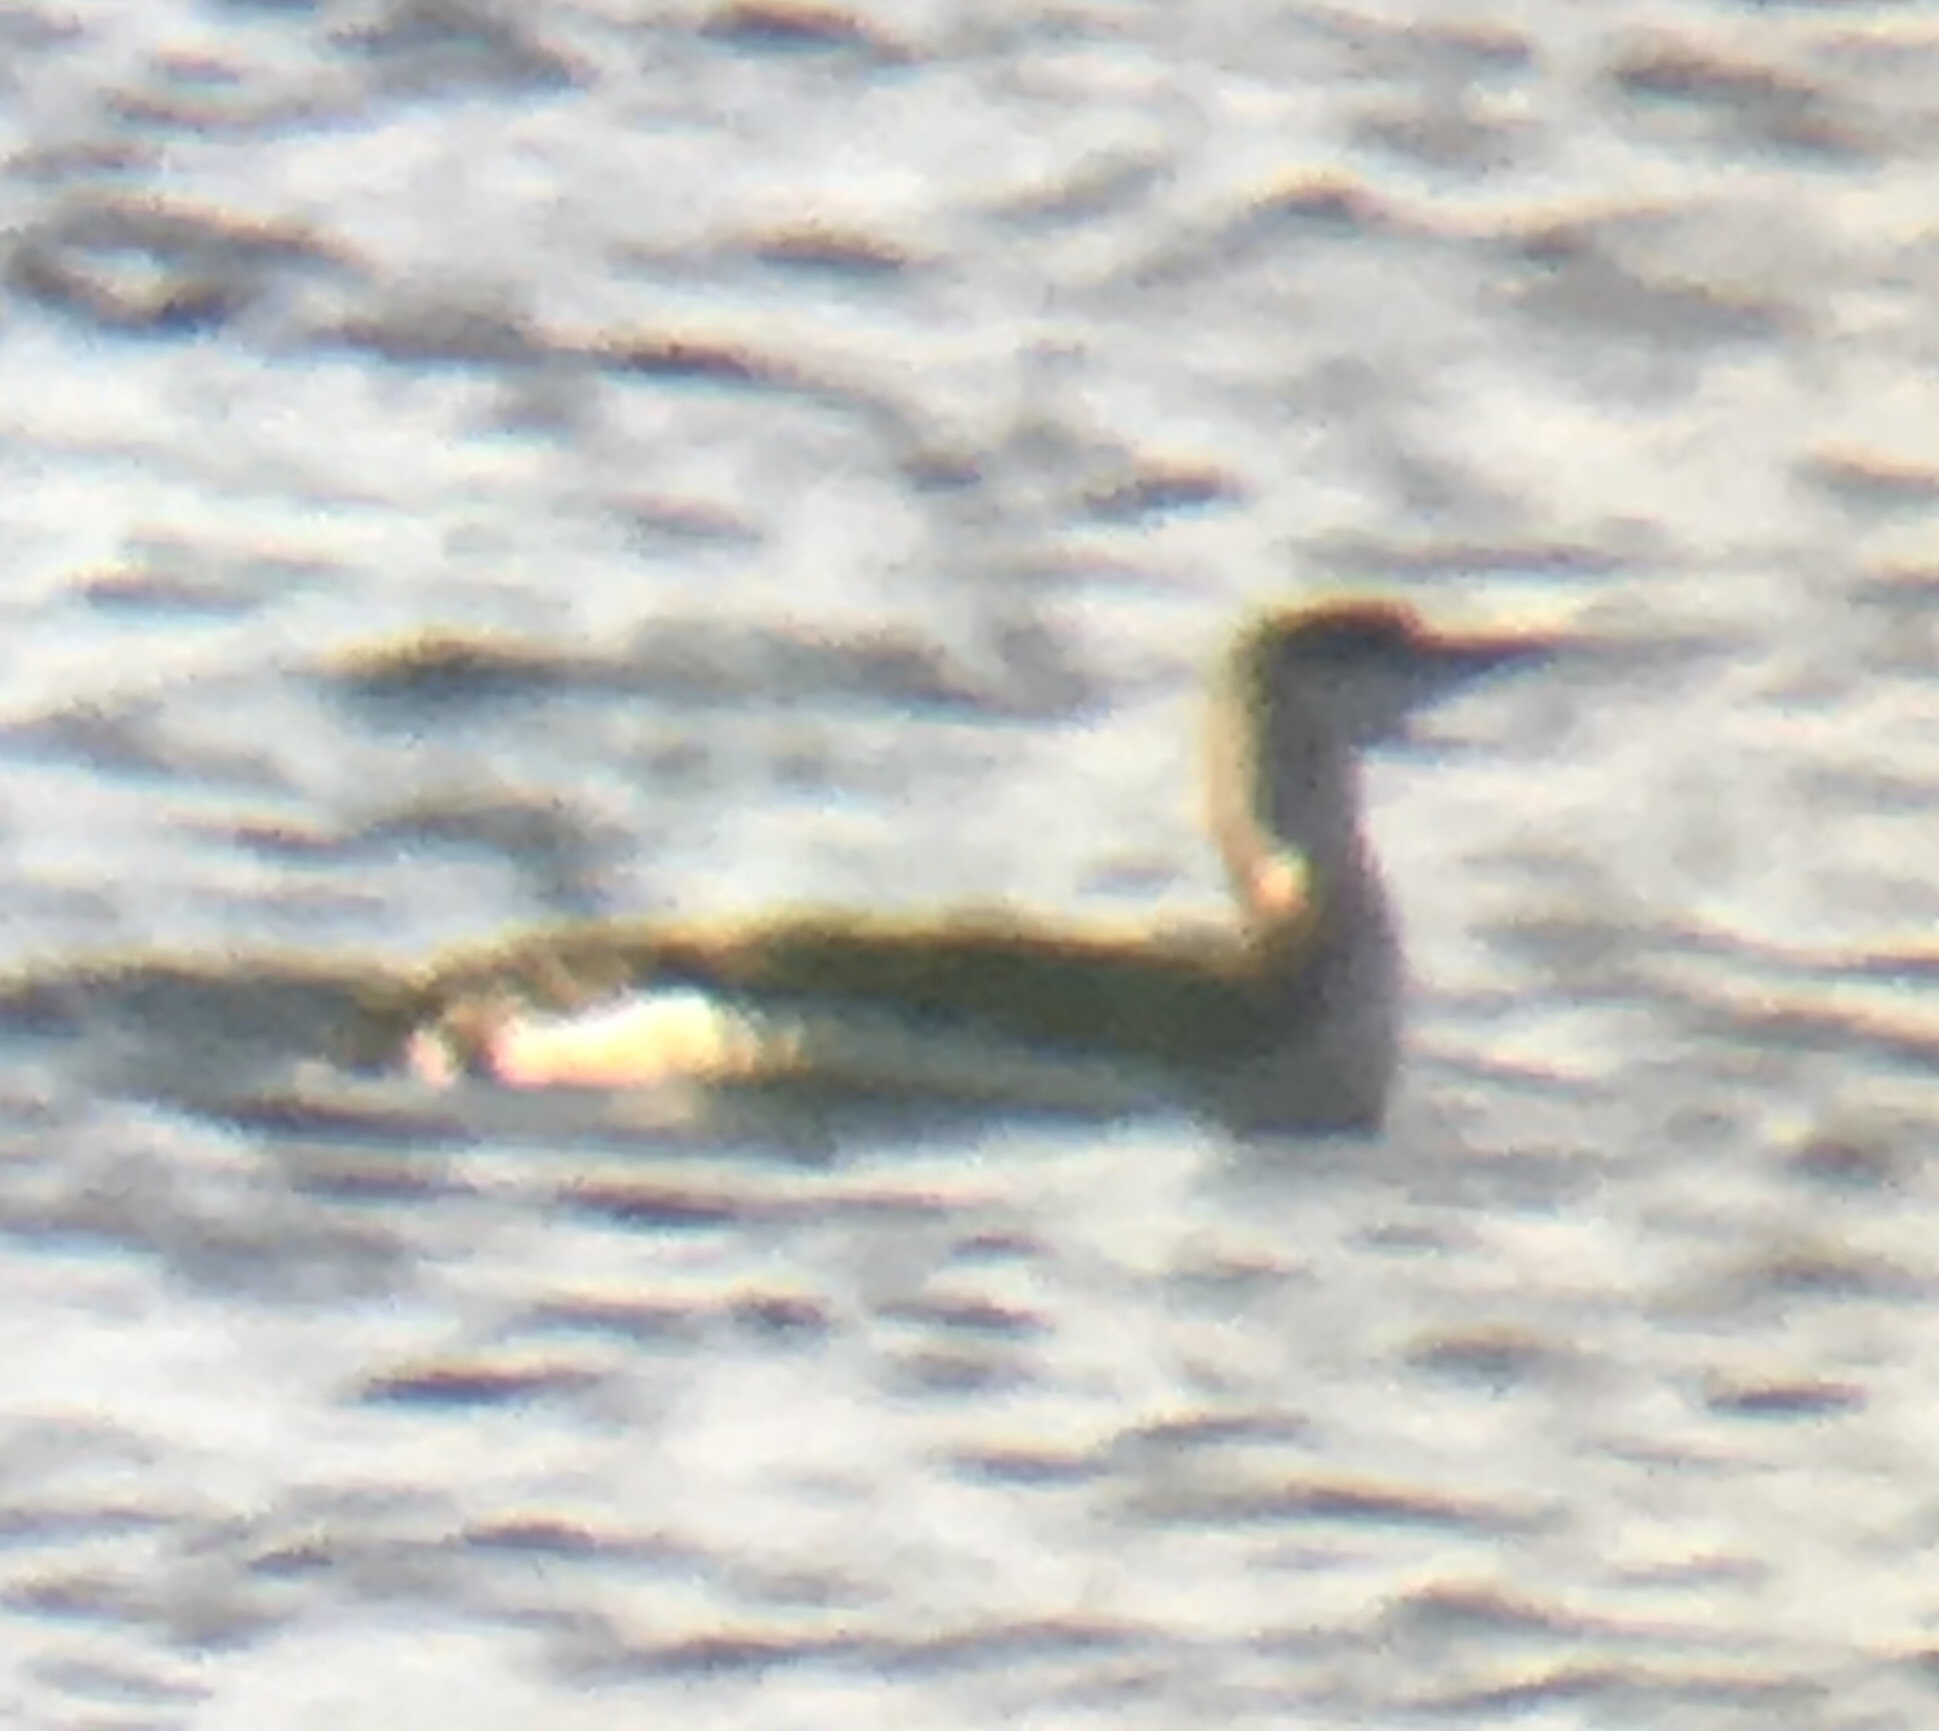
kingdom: Animalia
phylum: Chordata
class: Aves
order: Gaviiformes
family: Gaviidae
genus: Gavia
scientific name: Gavia stellata
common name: Red-throated loon
